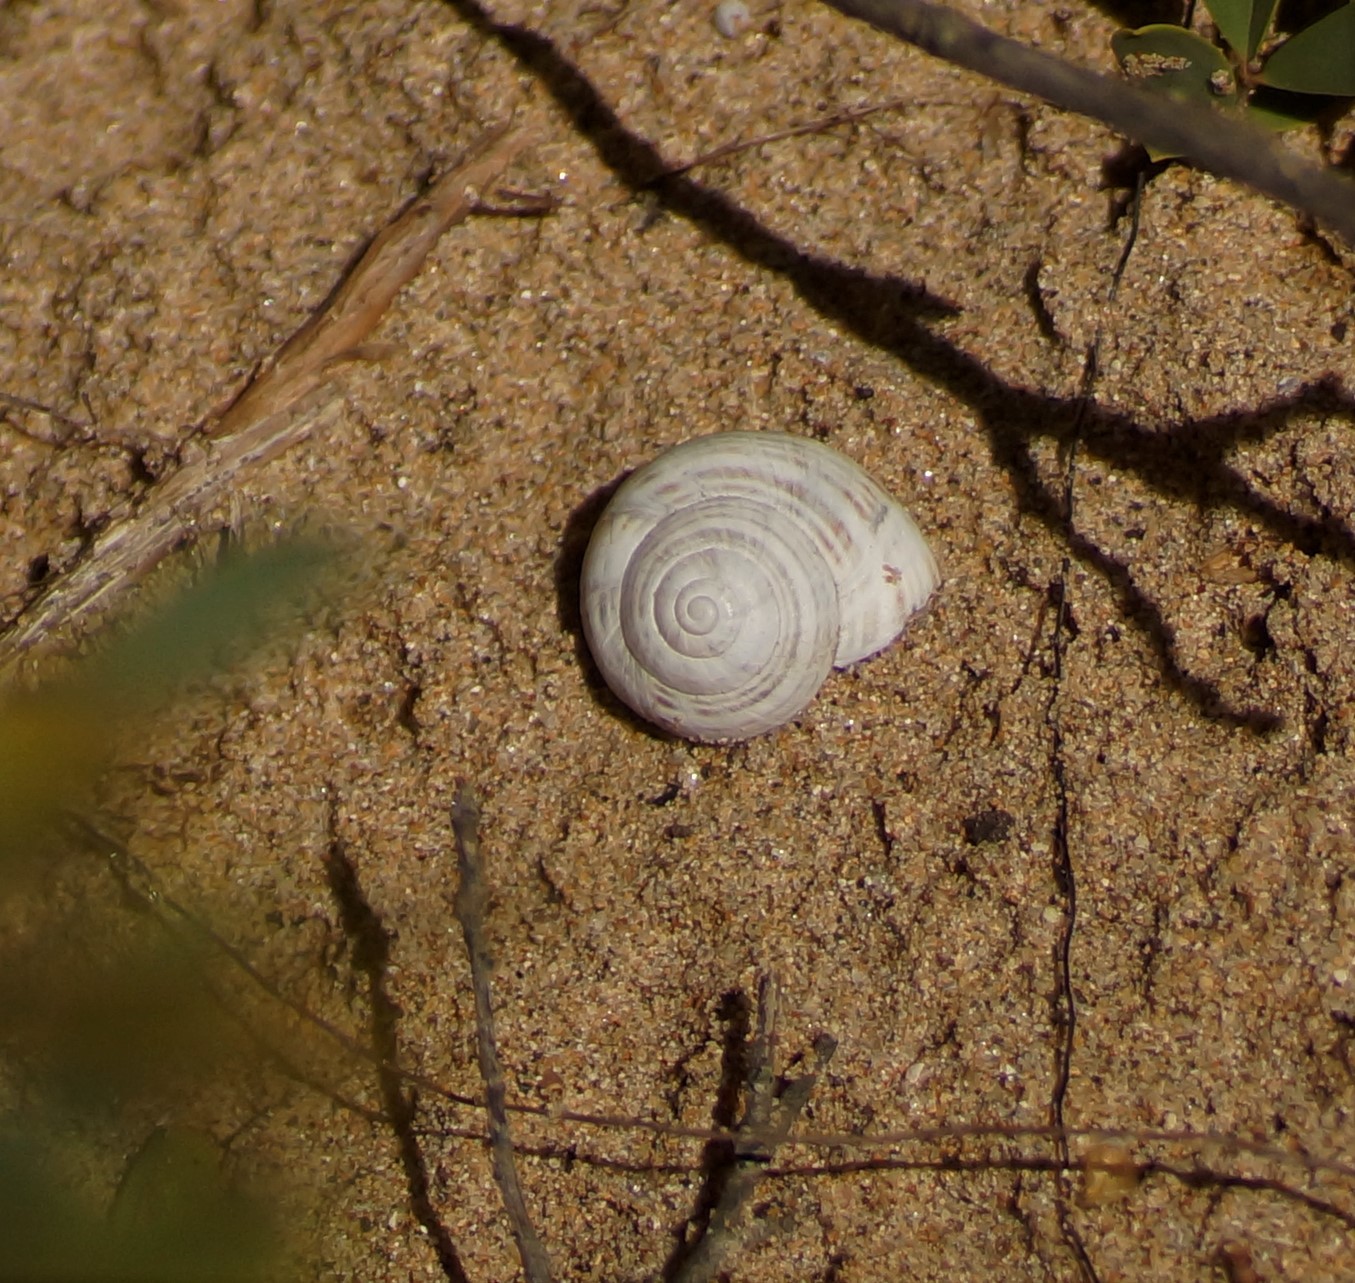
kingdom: Animalia
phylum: Mollusca
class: Gastropoda
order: Stylommatophora
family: Helicidae
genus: Theba
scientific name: Theba pisana
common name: White snail
